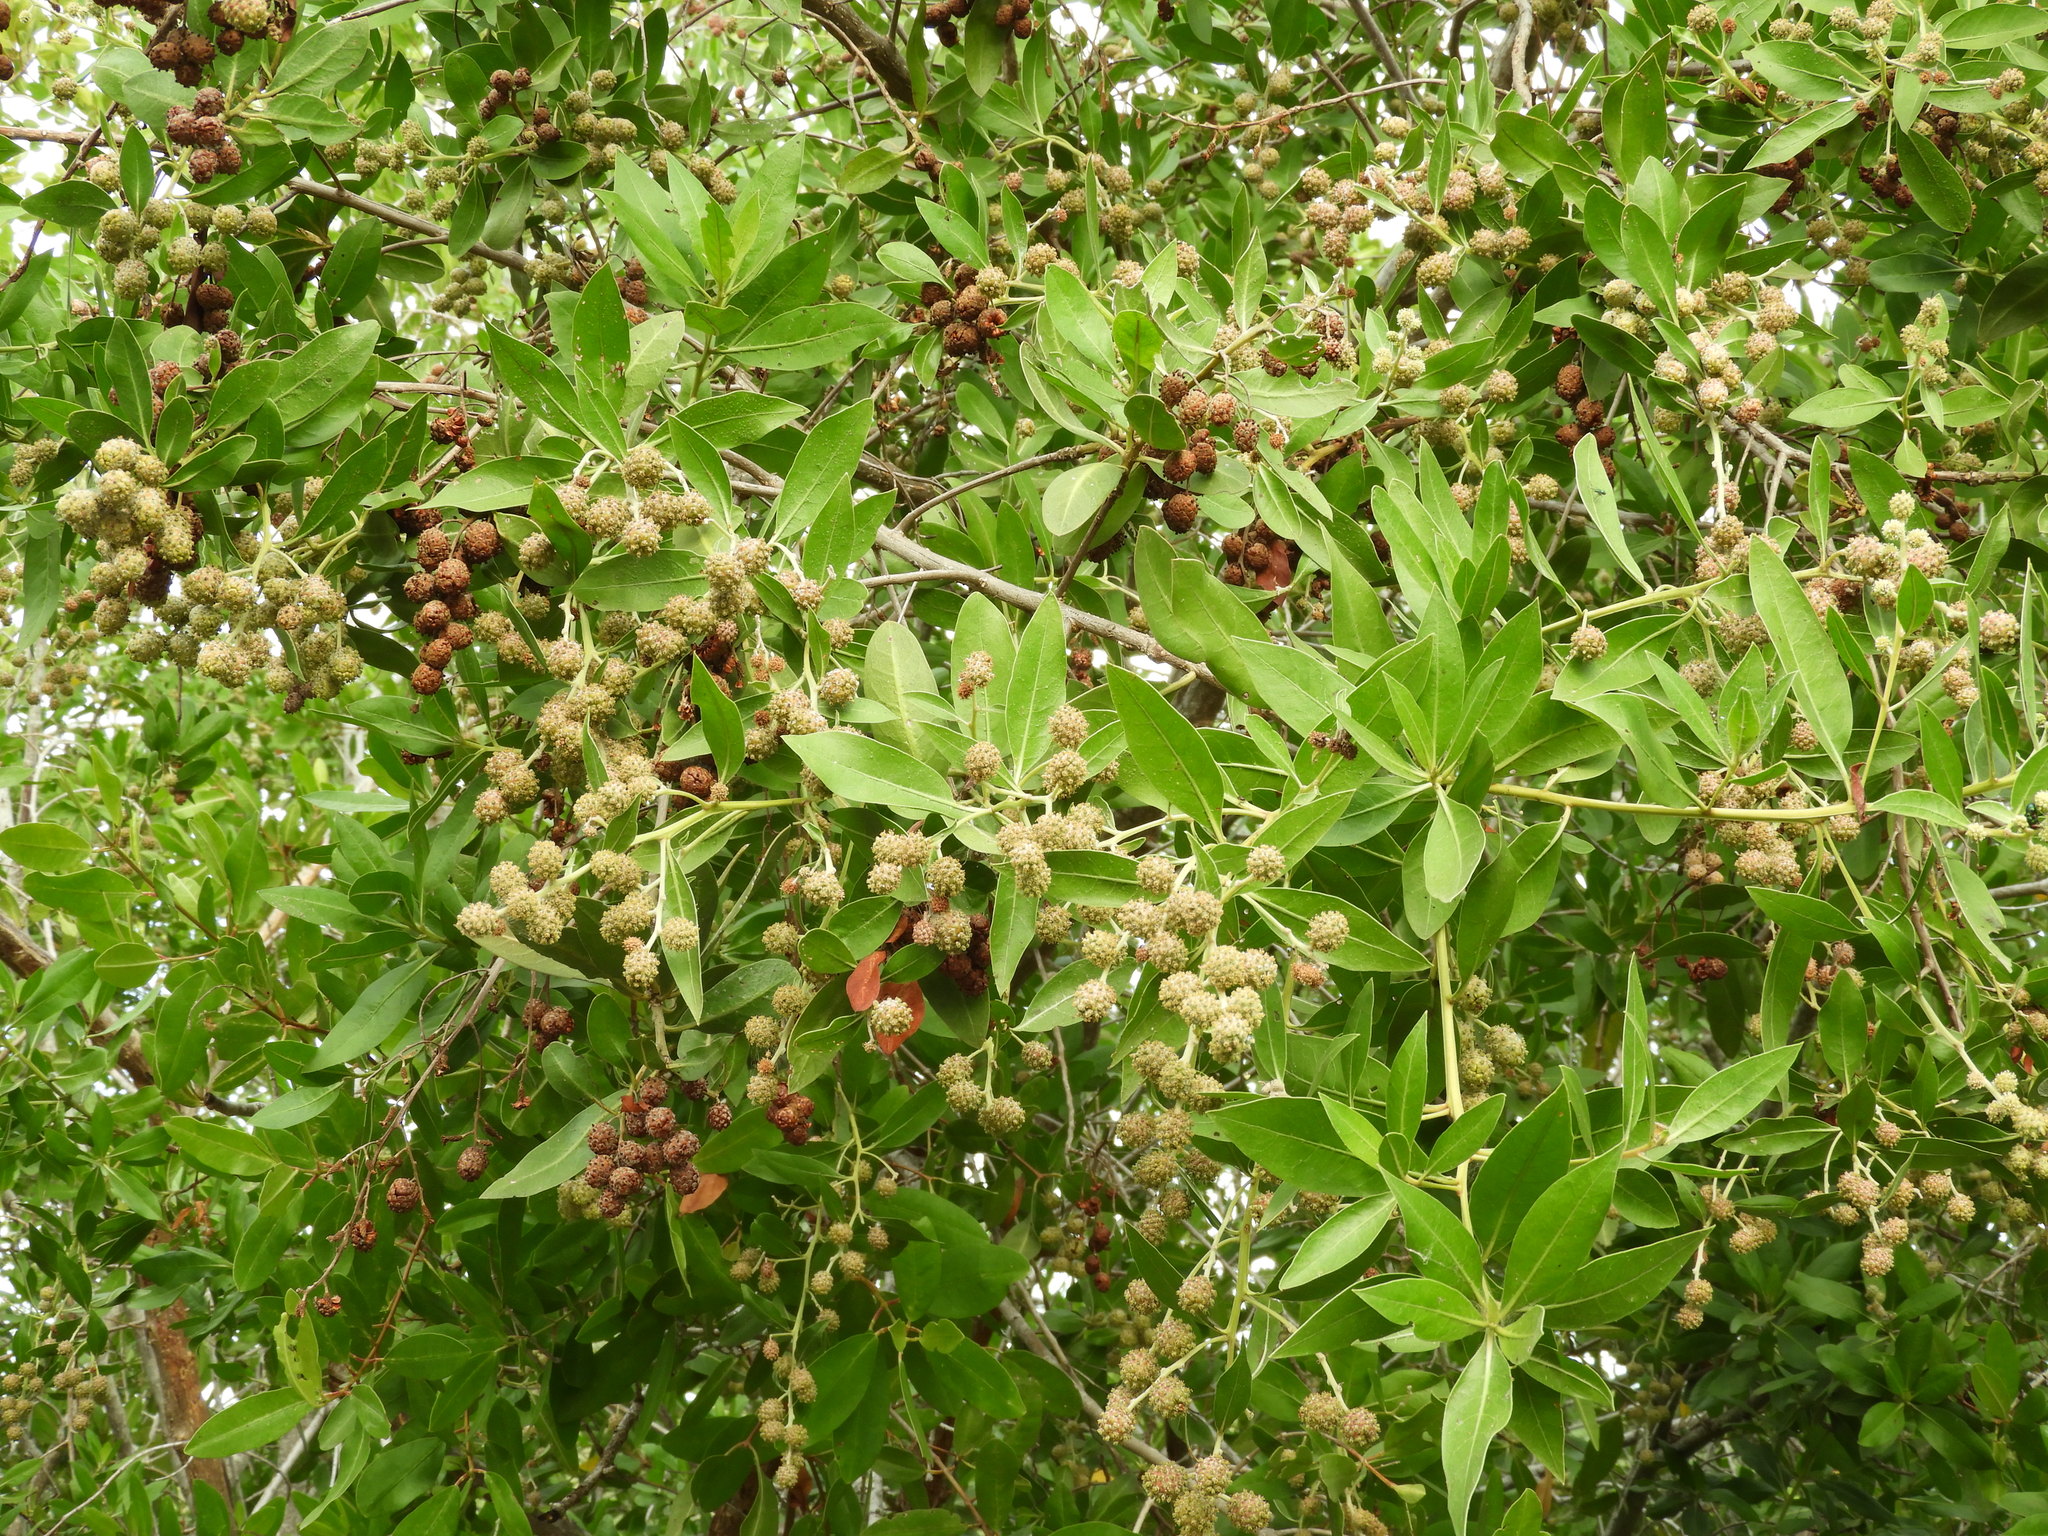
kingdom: Plantae
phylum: Tracheophyta
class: Magnoliopsida
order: Myrtales
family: Combretaceae
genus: Conocarpus
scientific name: Conocarpus erectus
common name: Button mangrove
